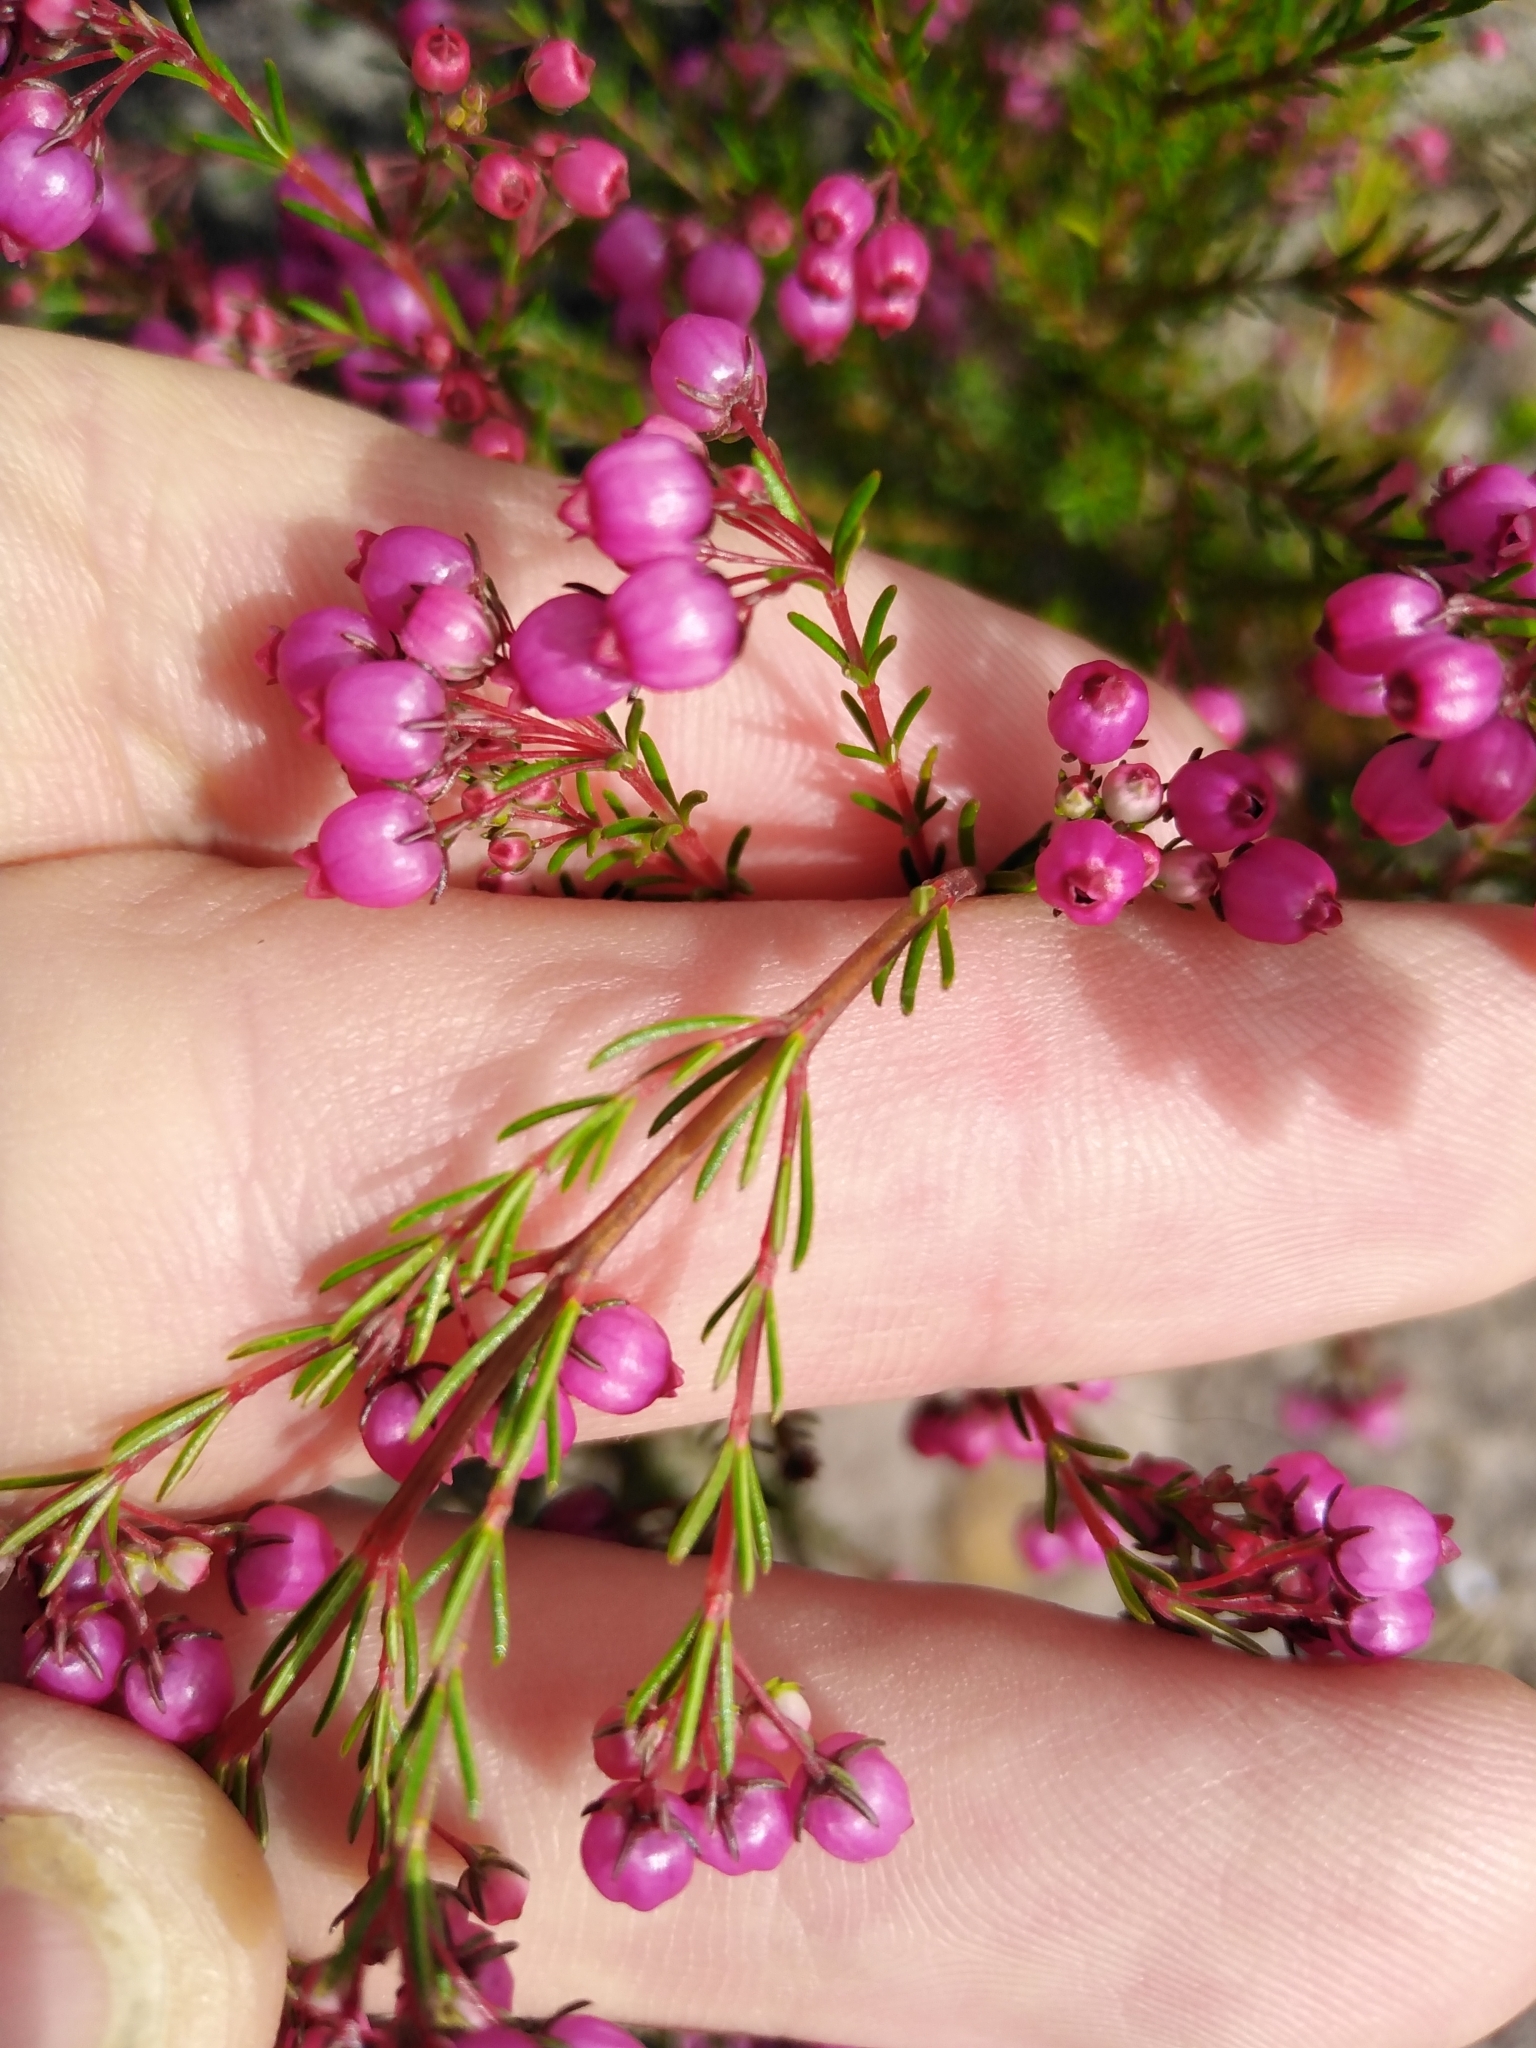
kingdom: Plantae
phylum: Tracheophyta
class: Magnoliopsida
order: Ericales
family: Ericaceae
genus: Erica
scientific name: Erica multumbellifera
